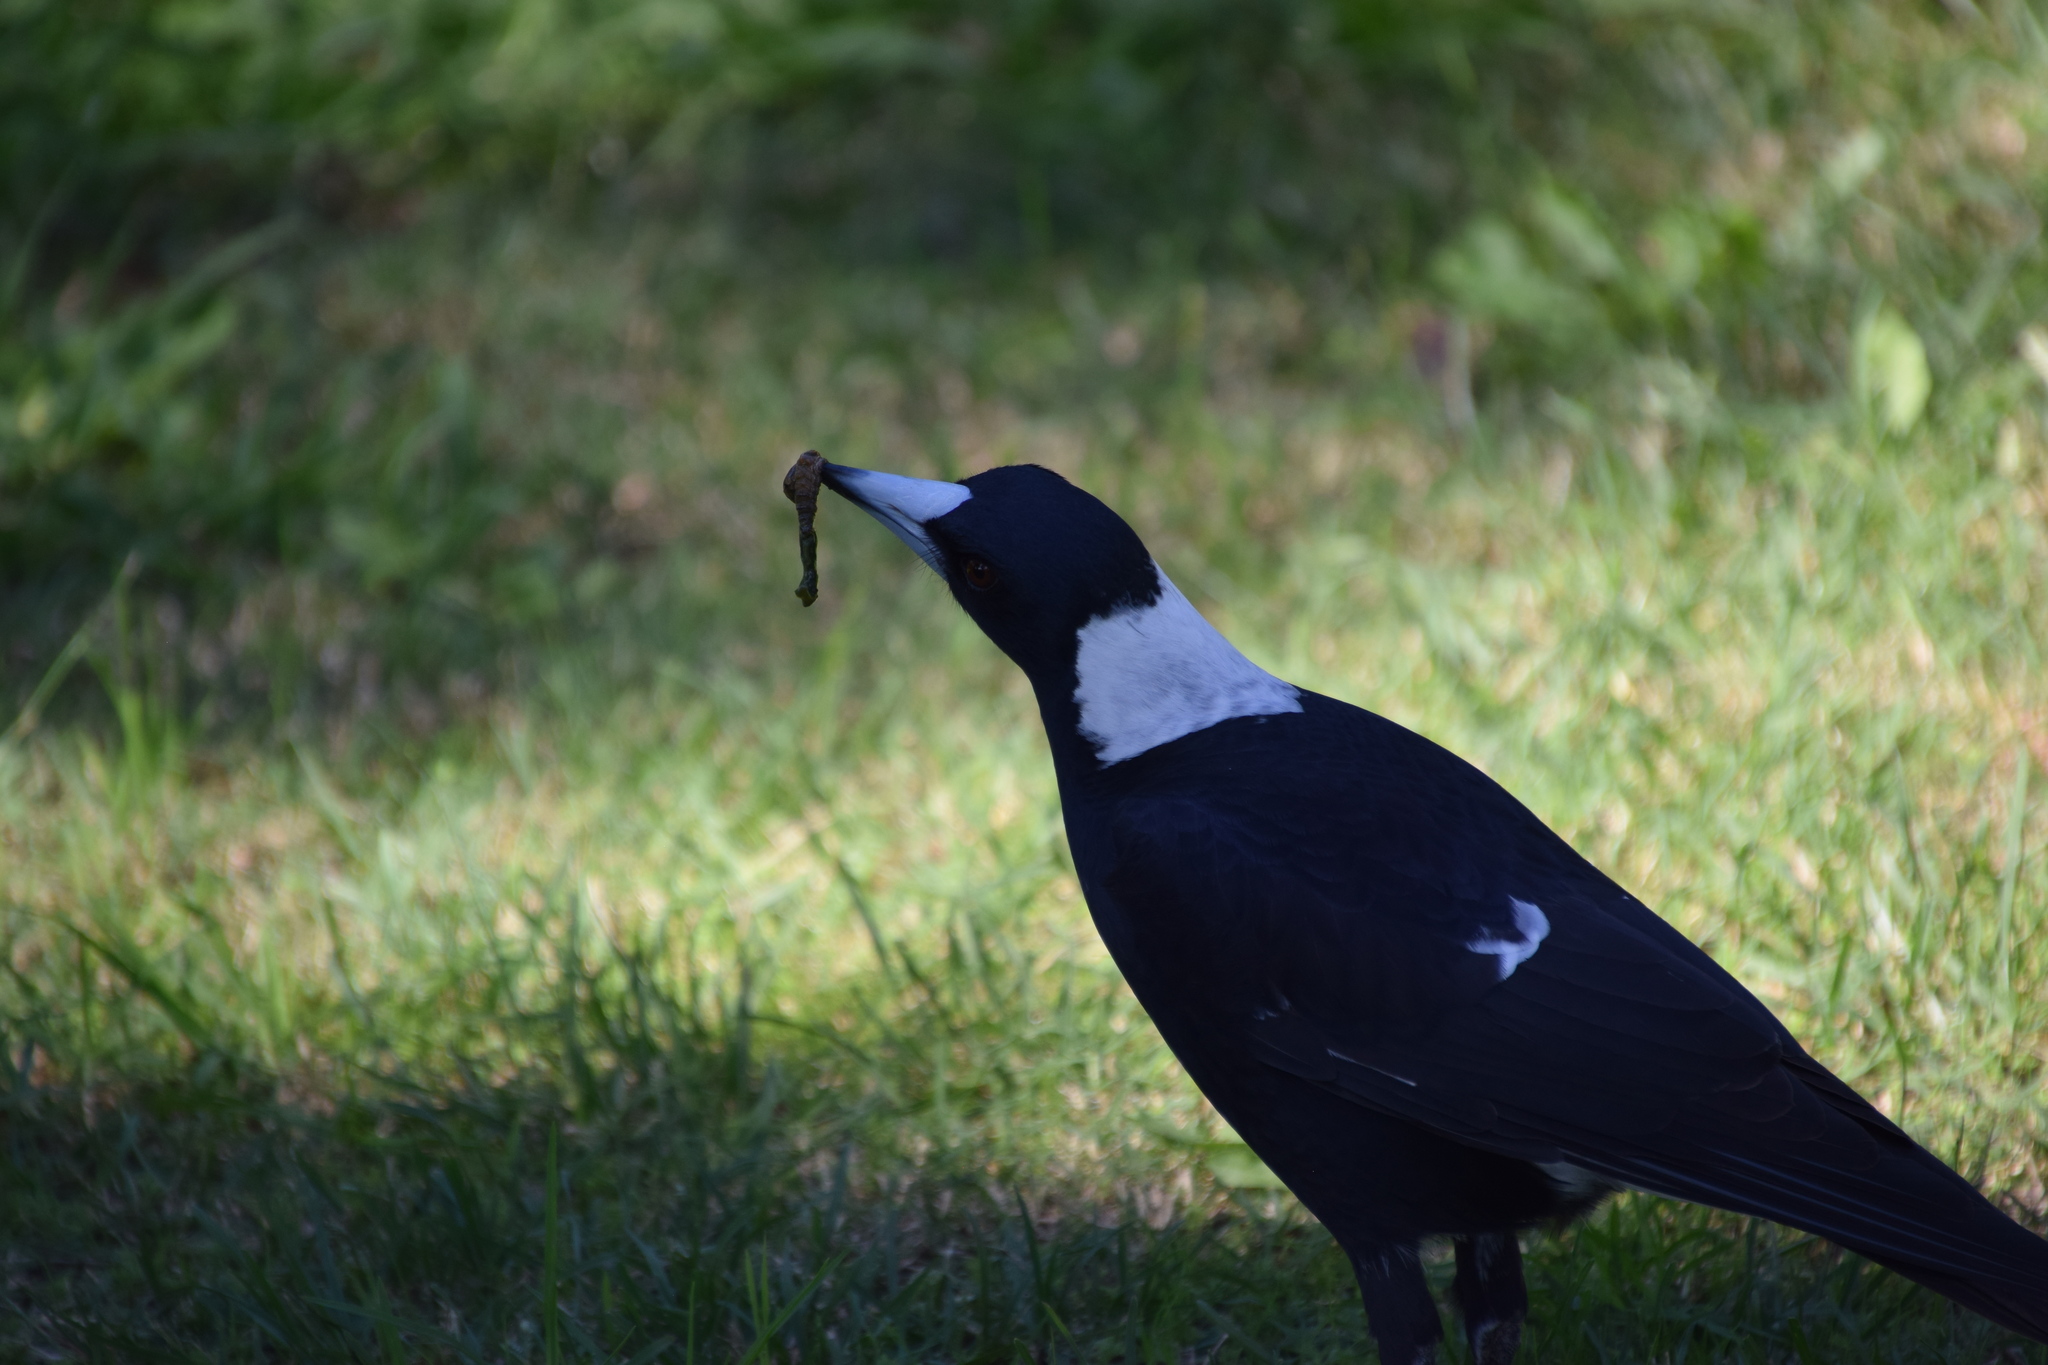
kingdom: Animalia
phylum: Chordata
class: Aves
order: Passeriformes
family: Cracticidae
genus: Gymnorhina
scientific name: Gymnorhina tibicen
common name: Australian magpie
